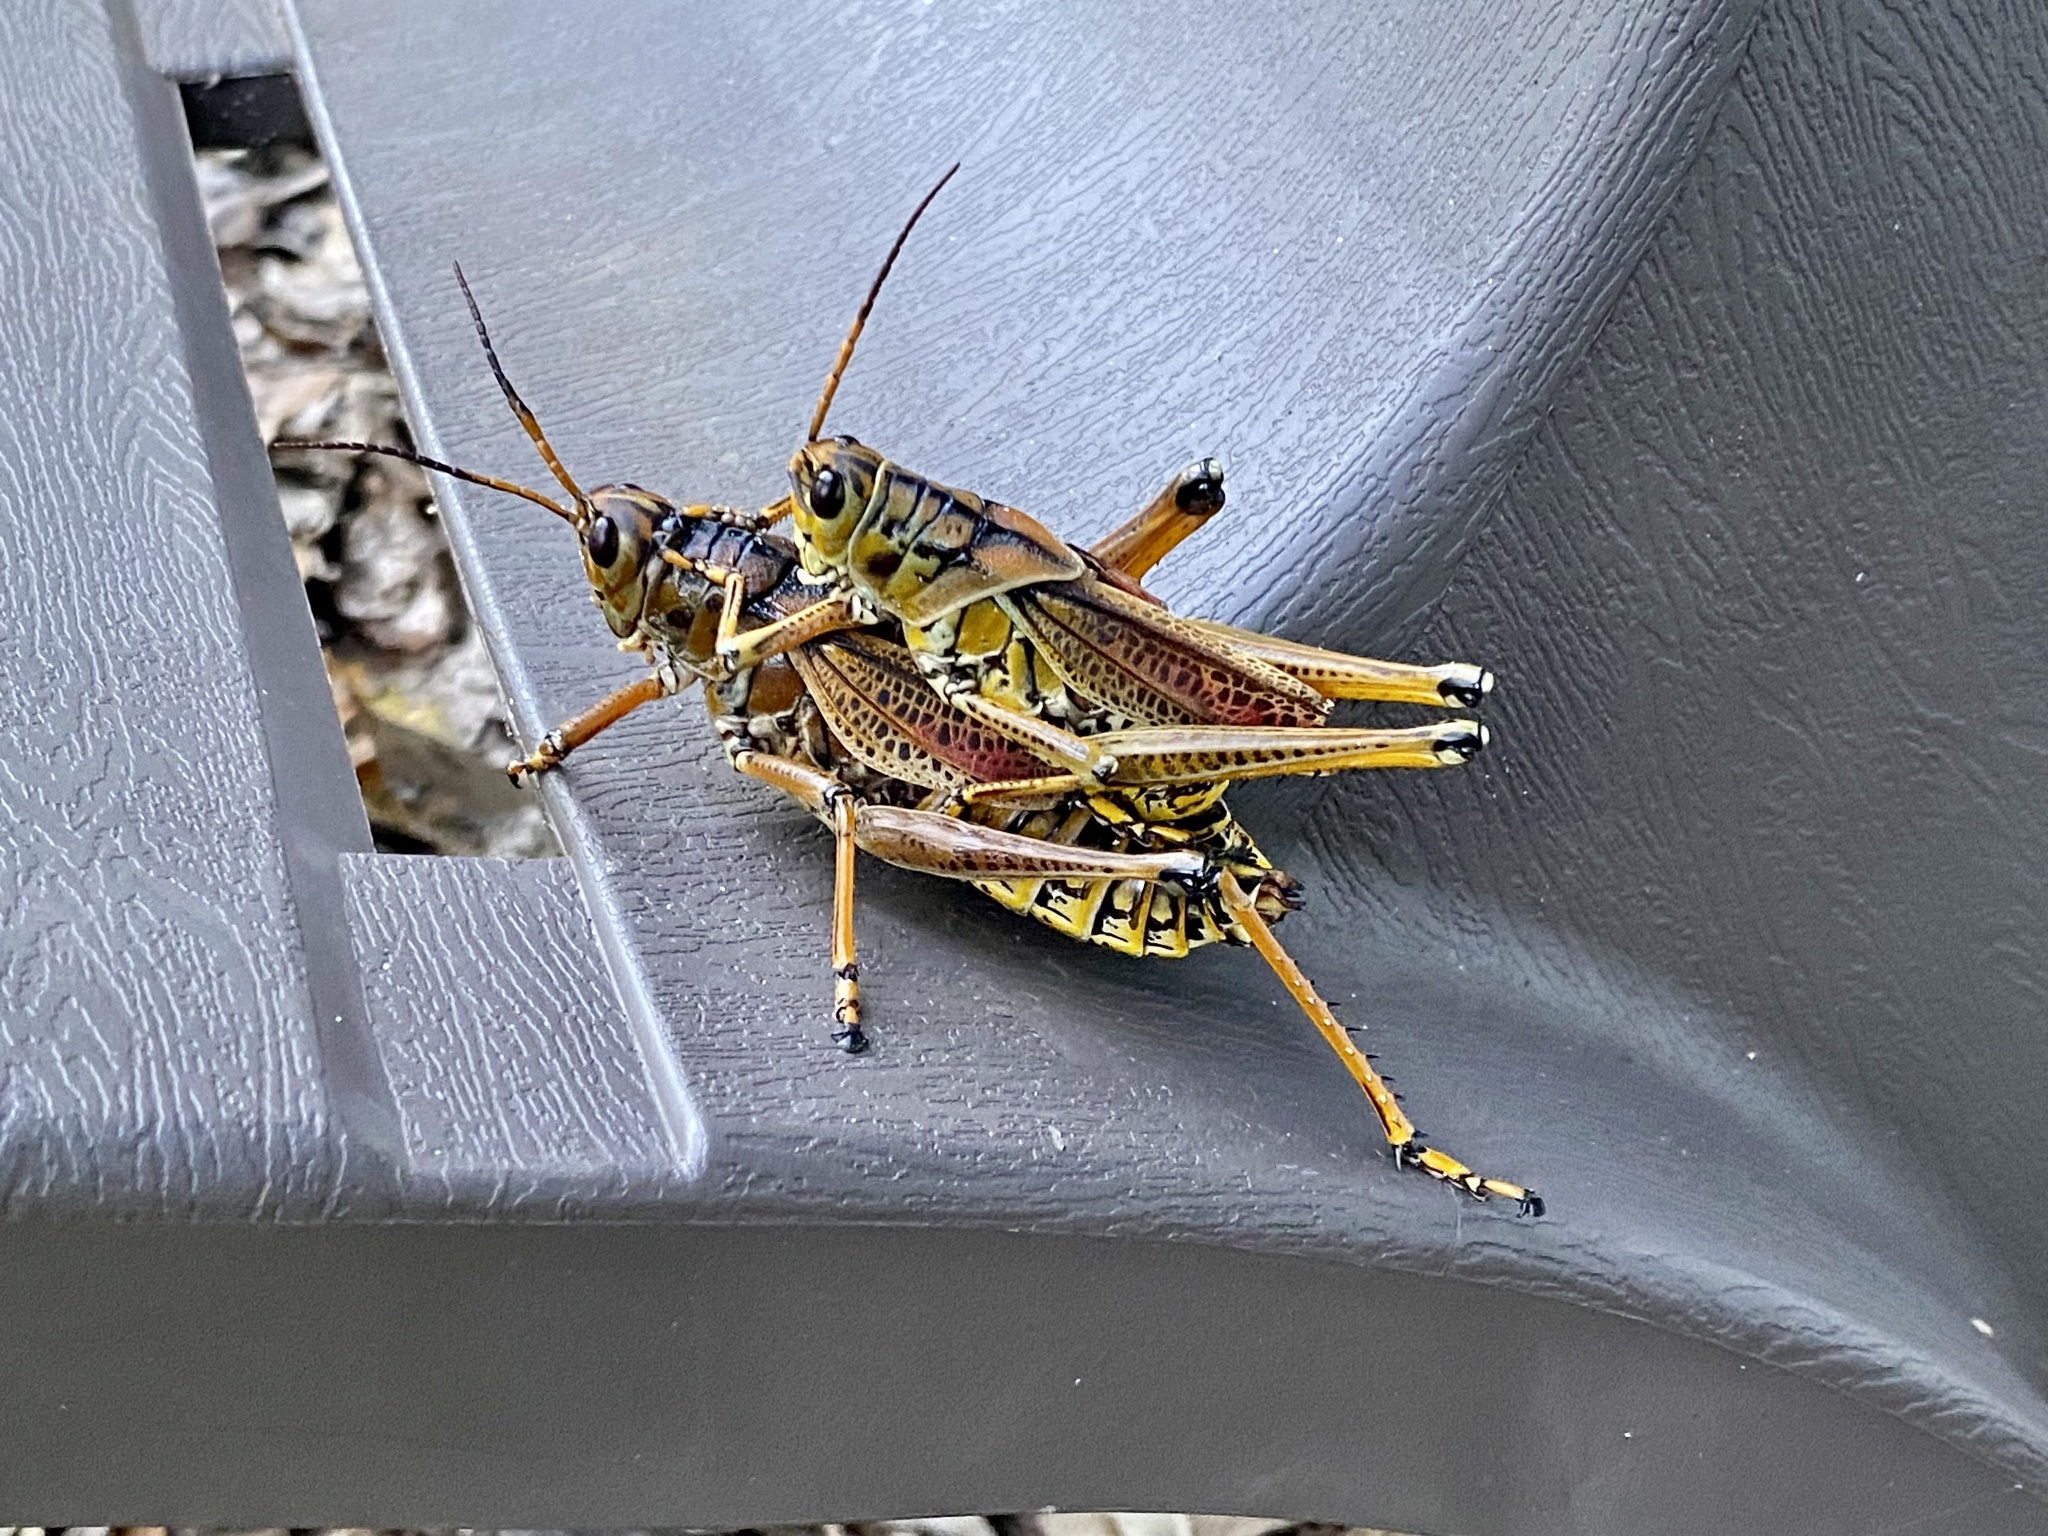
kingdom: Animalia
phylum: Arthropoda
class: Insecta
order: Orthoptera
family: Romaleidae
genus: Romalea
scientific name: Romalea microptera
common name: Eastern lubber grasshopper
